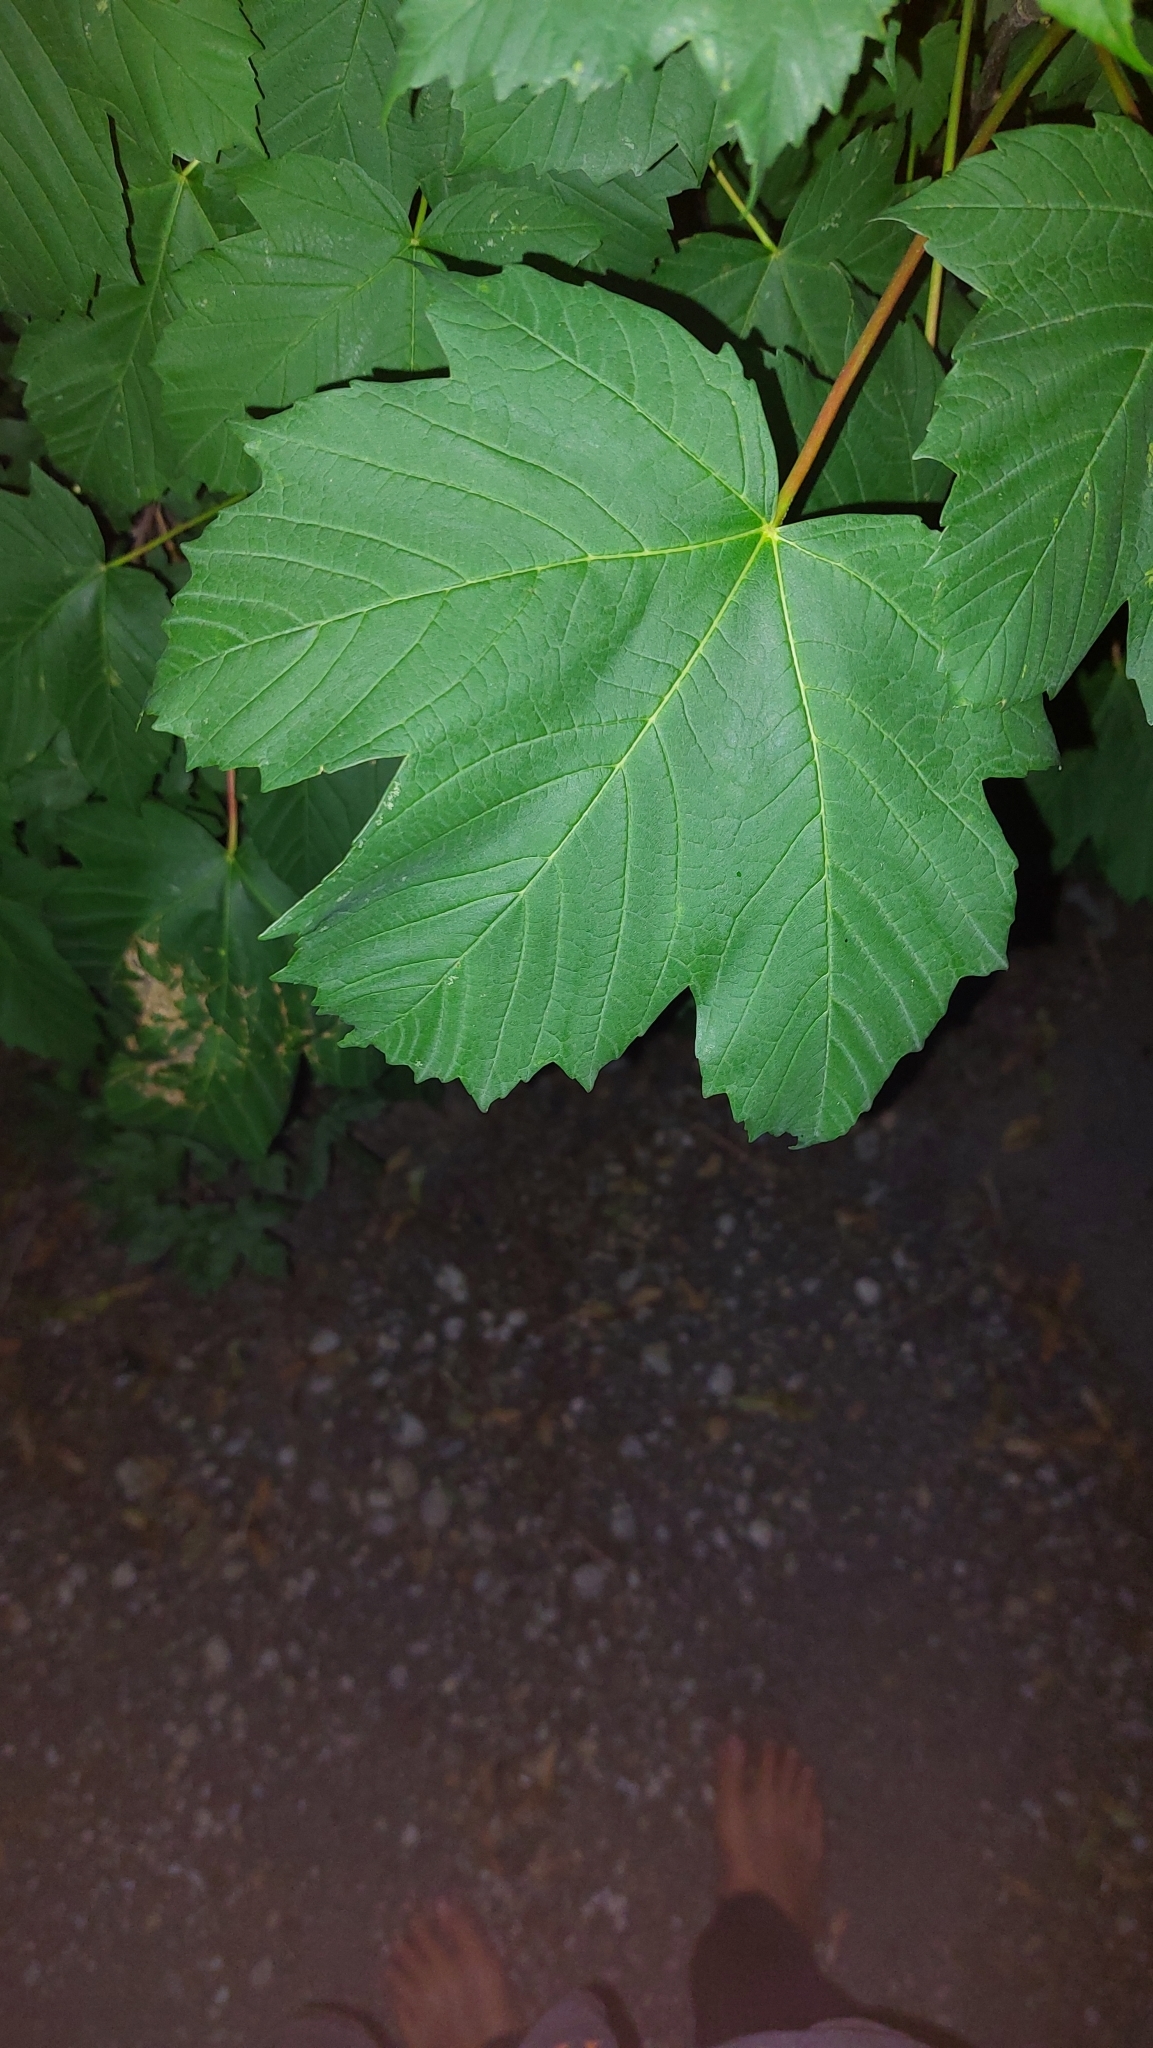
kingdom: Plantae
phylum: Tracheophyta
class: Magnoliopsida
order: Sapindales
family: Sapindaceae
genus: Acer
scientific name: Acer pseudoplatanus
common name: Sycamore
